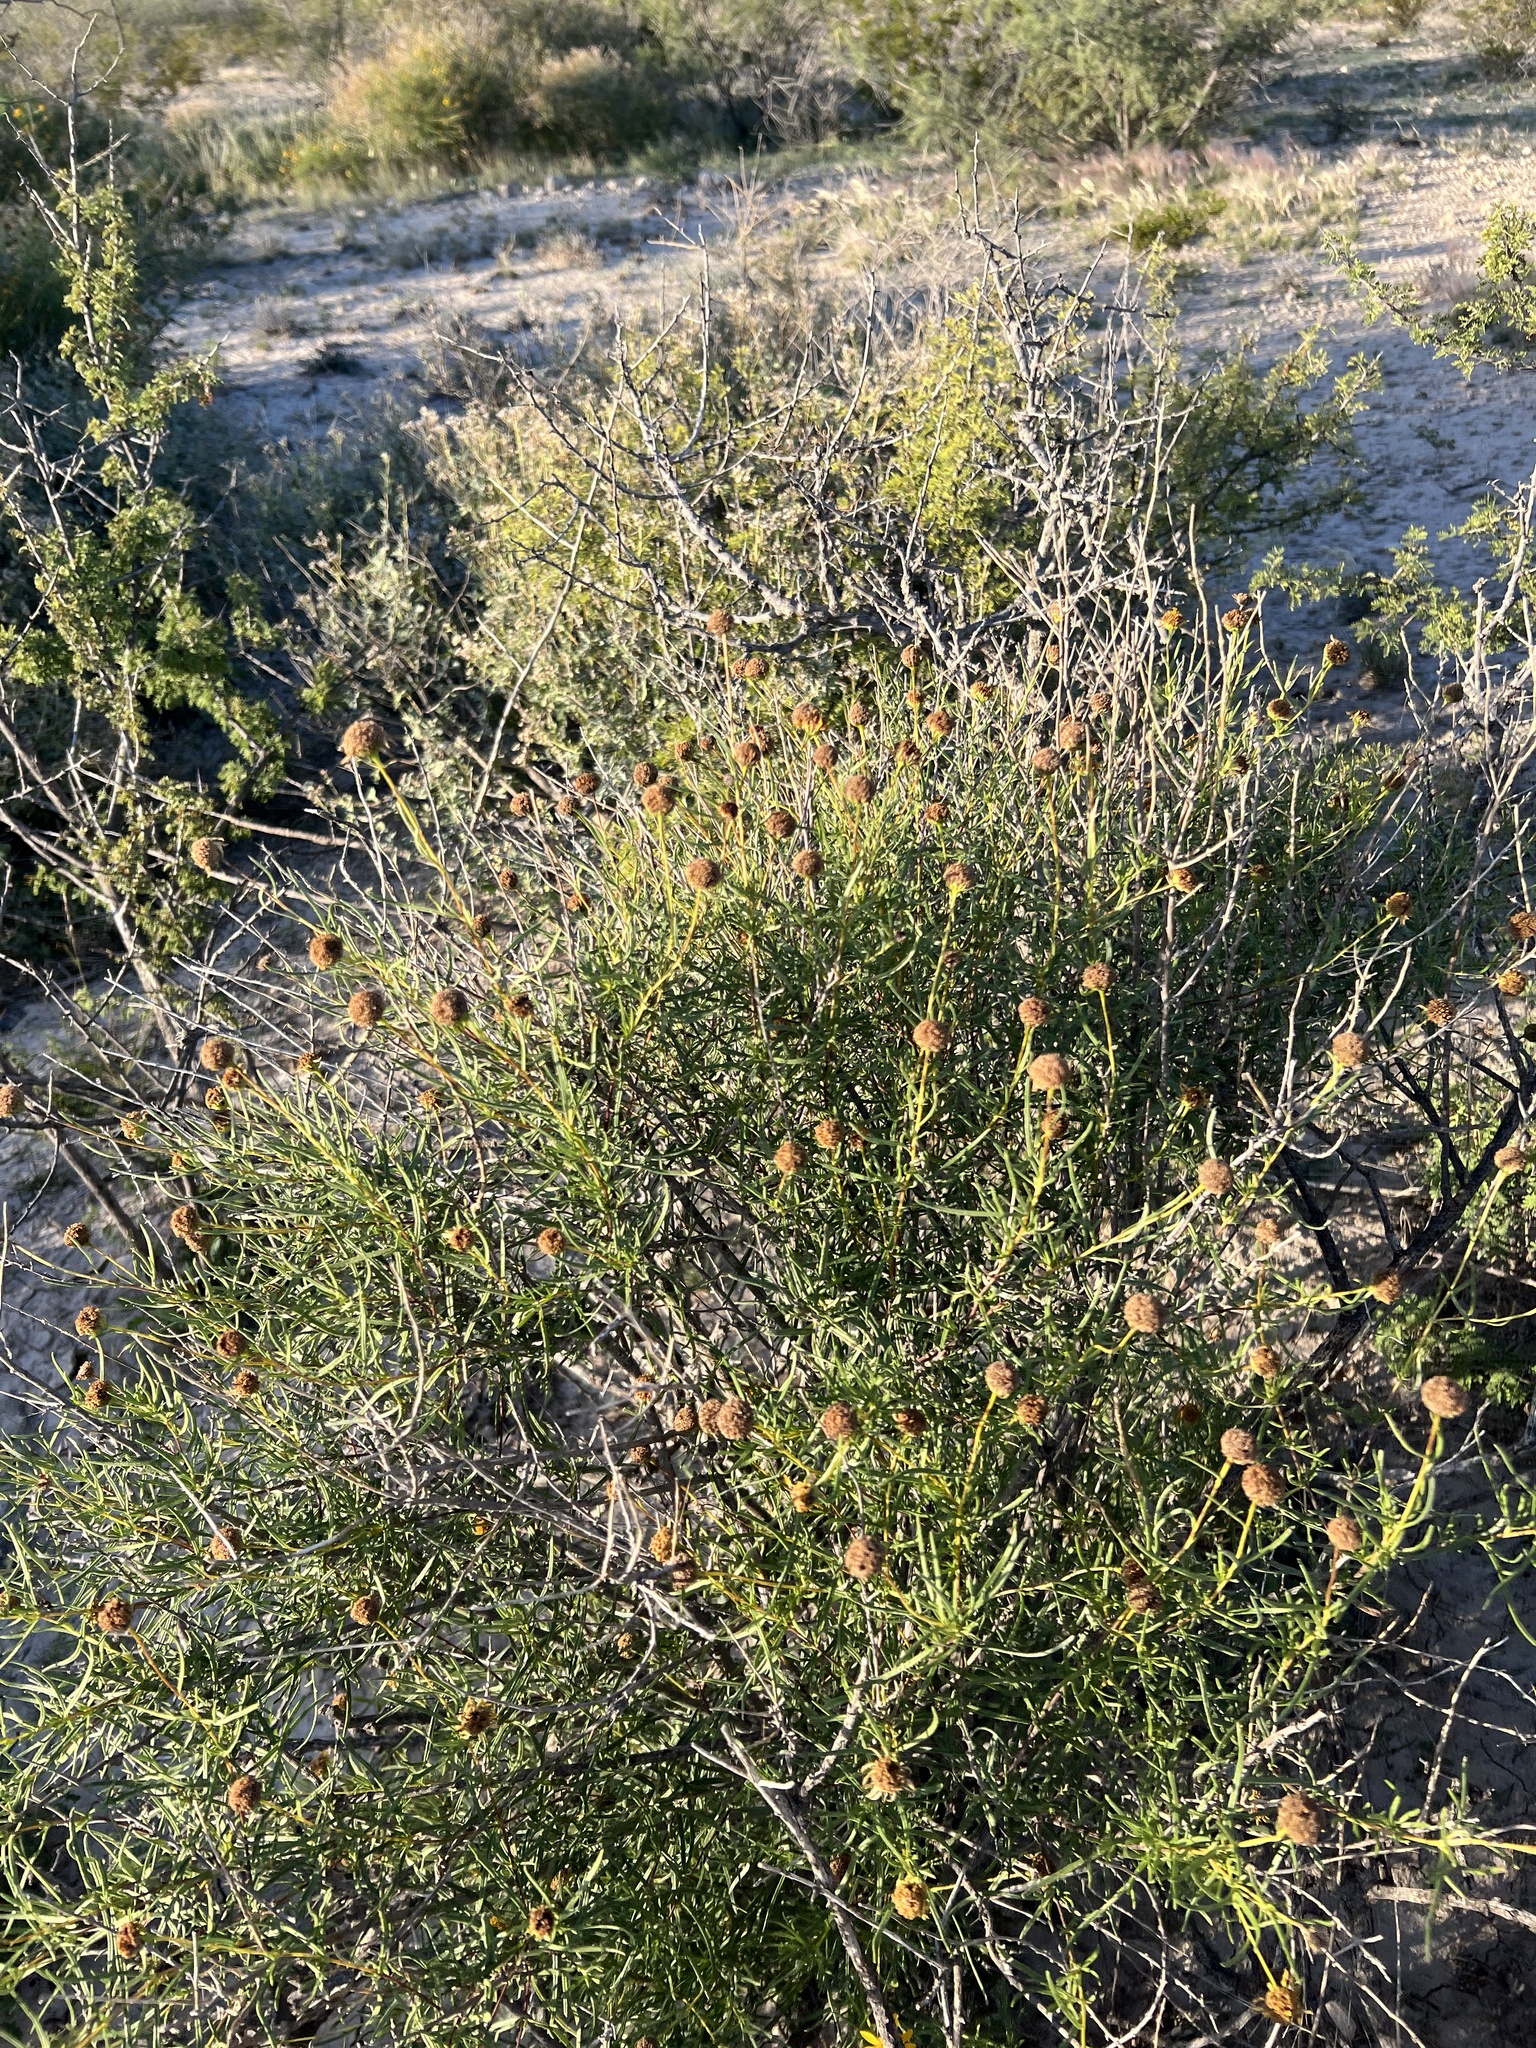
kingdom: Plantae
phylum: Tracheophyta
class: Magnoliopsida
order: Asterales
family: Asteraceae
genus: Sidneya
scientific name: Sidneya tenuifolia
